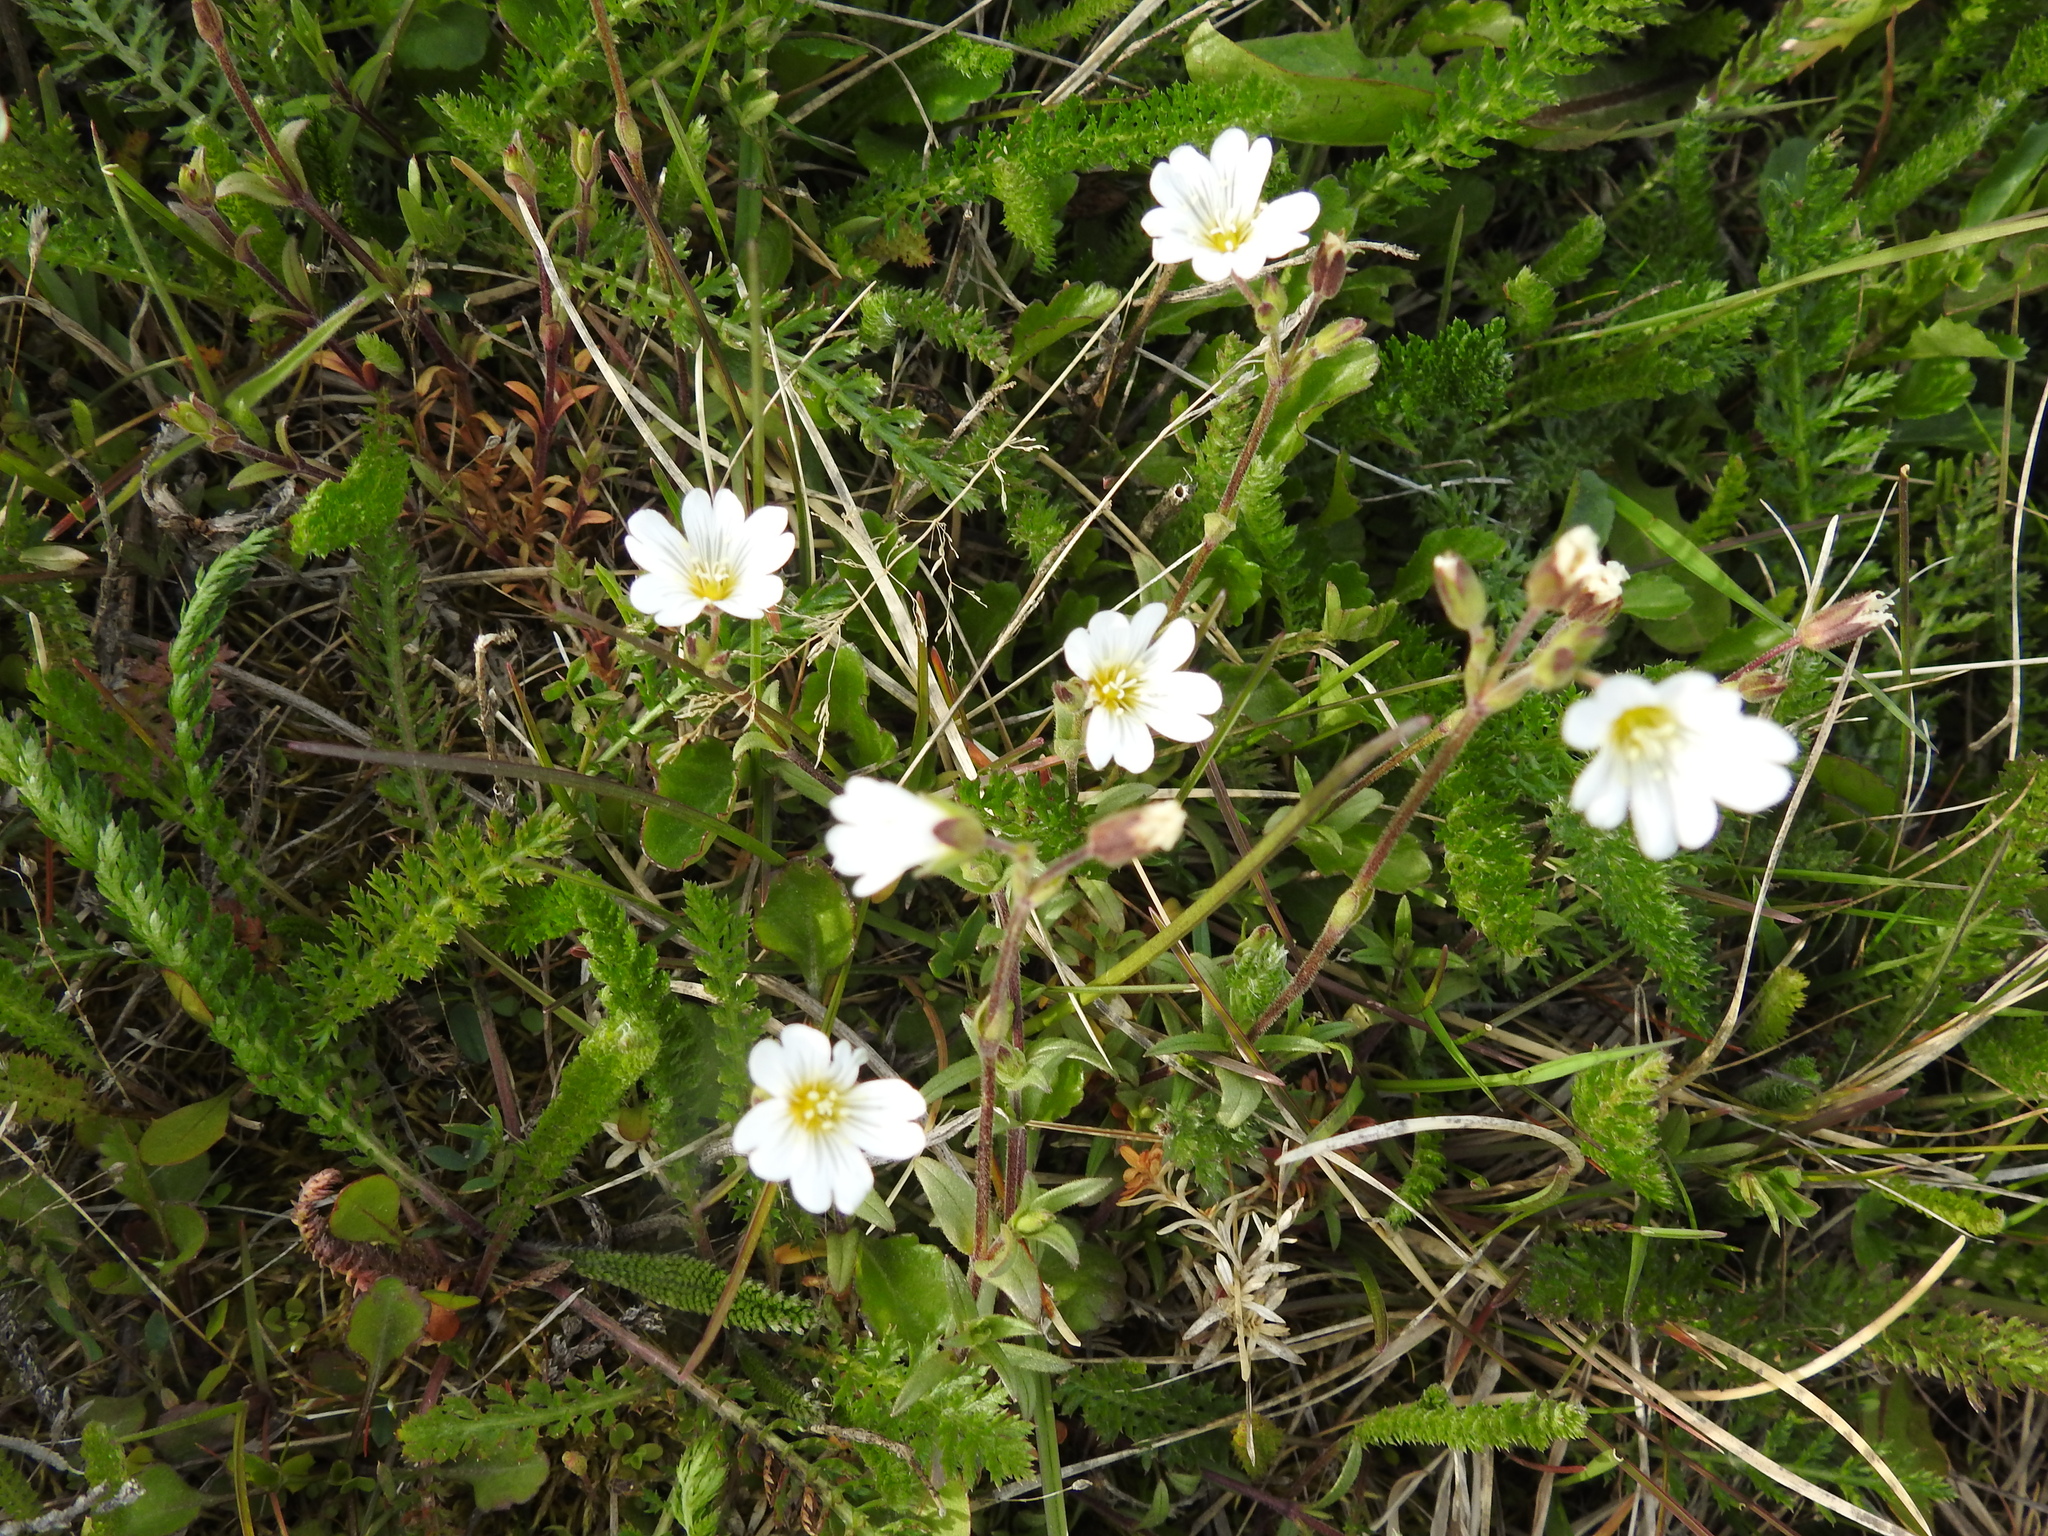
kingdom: Plantae
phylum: Tracheophyta
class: Magnoliopsida
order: Caryophyllales
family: Caryophyllaceae
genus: Cerastium
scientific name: Cerastium arvense
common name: Field mouse-ear
